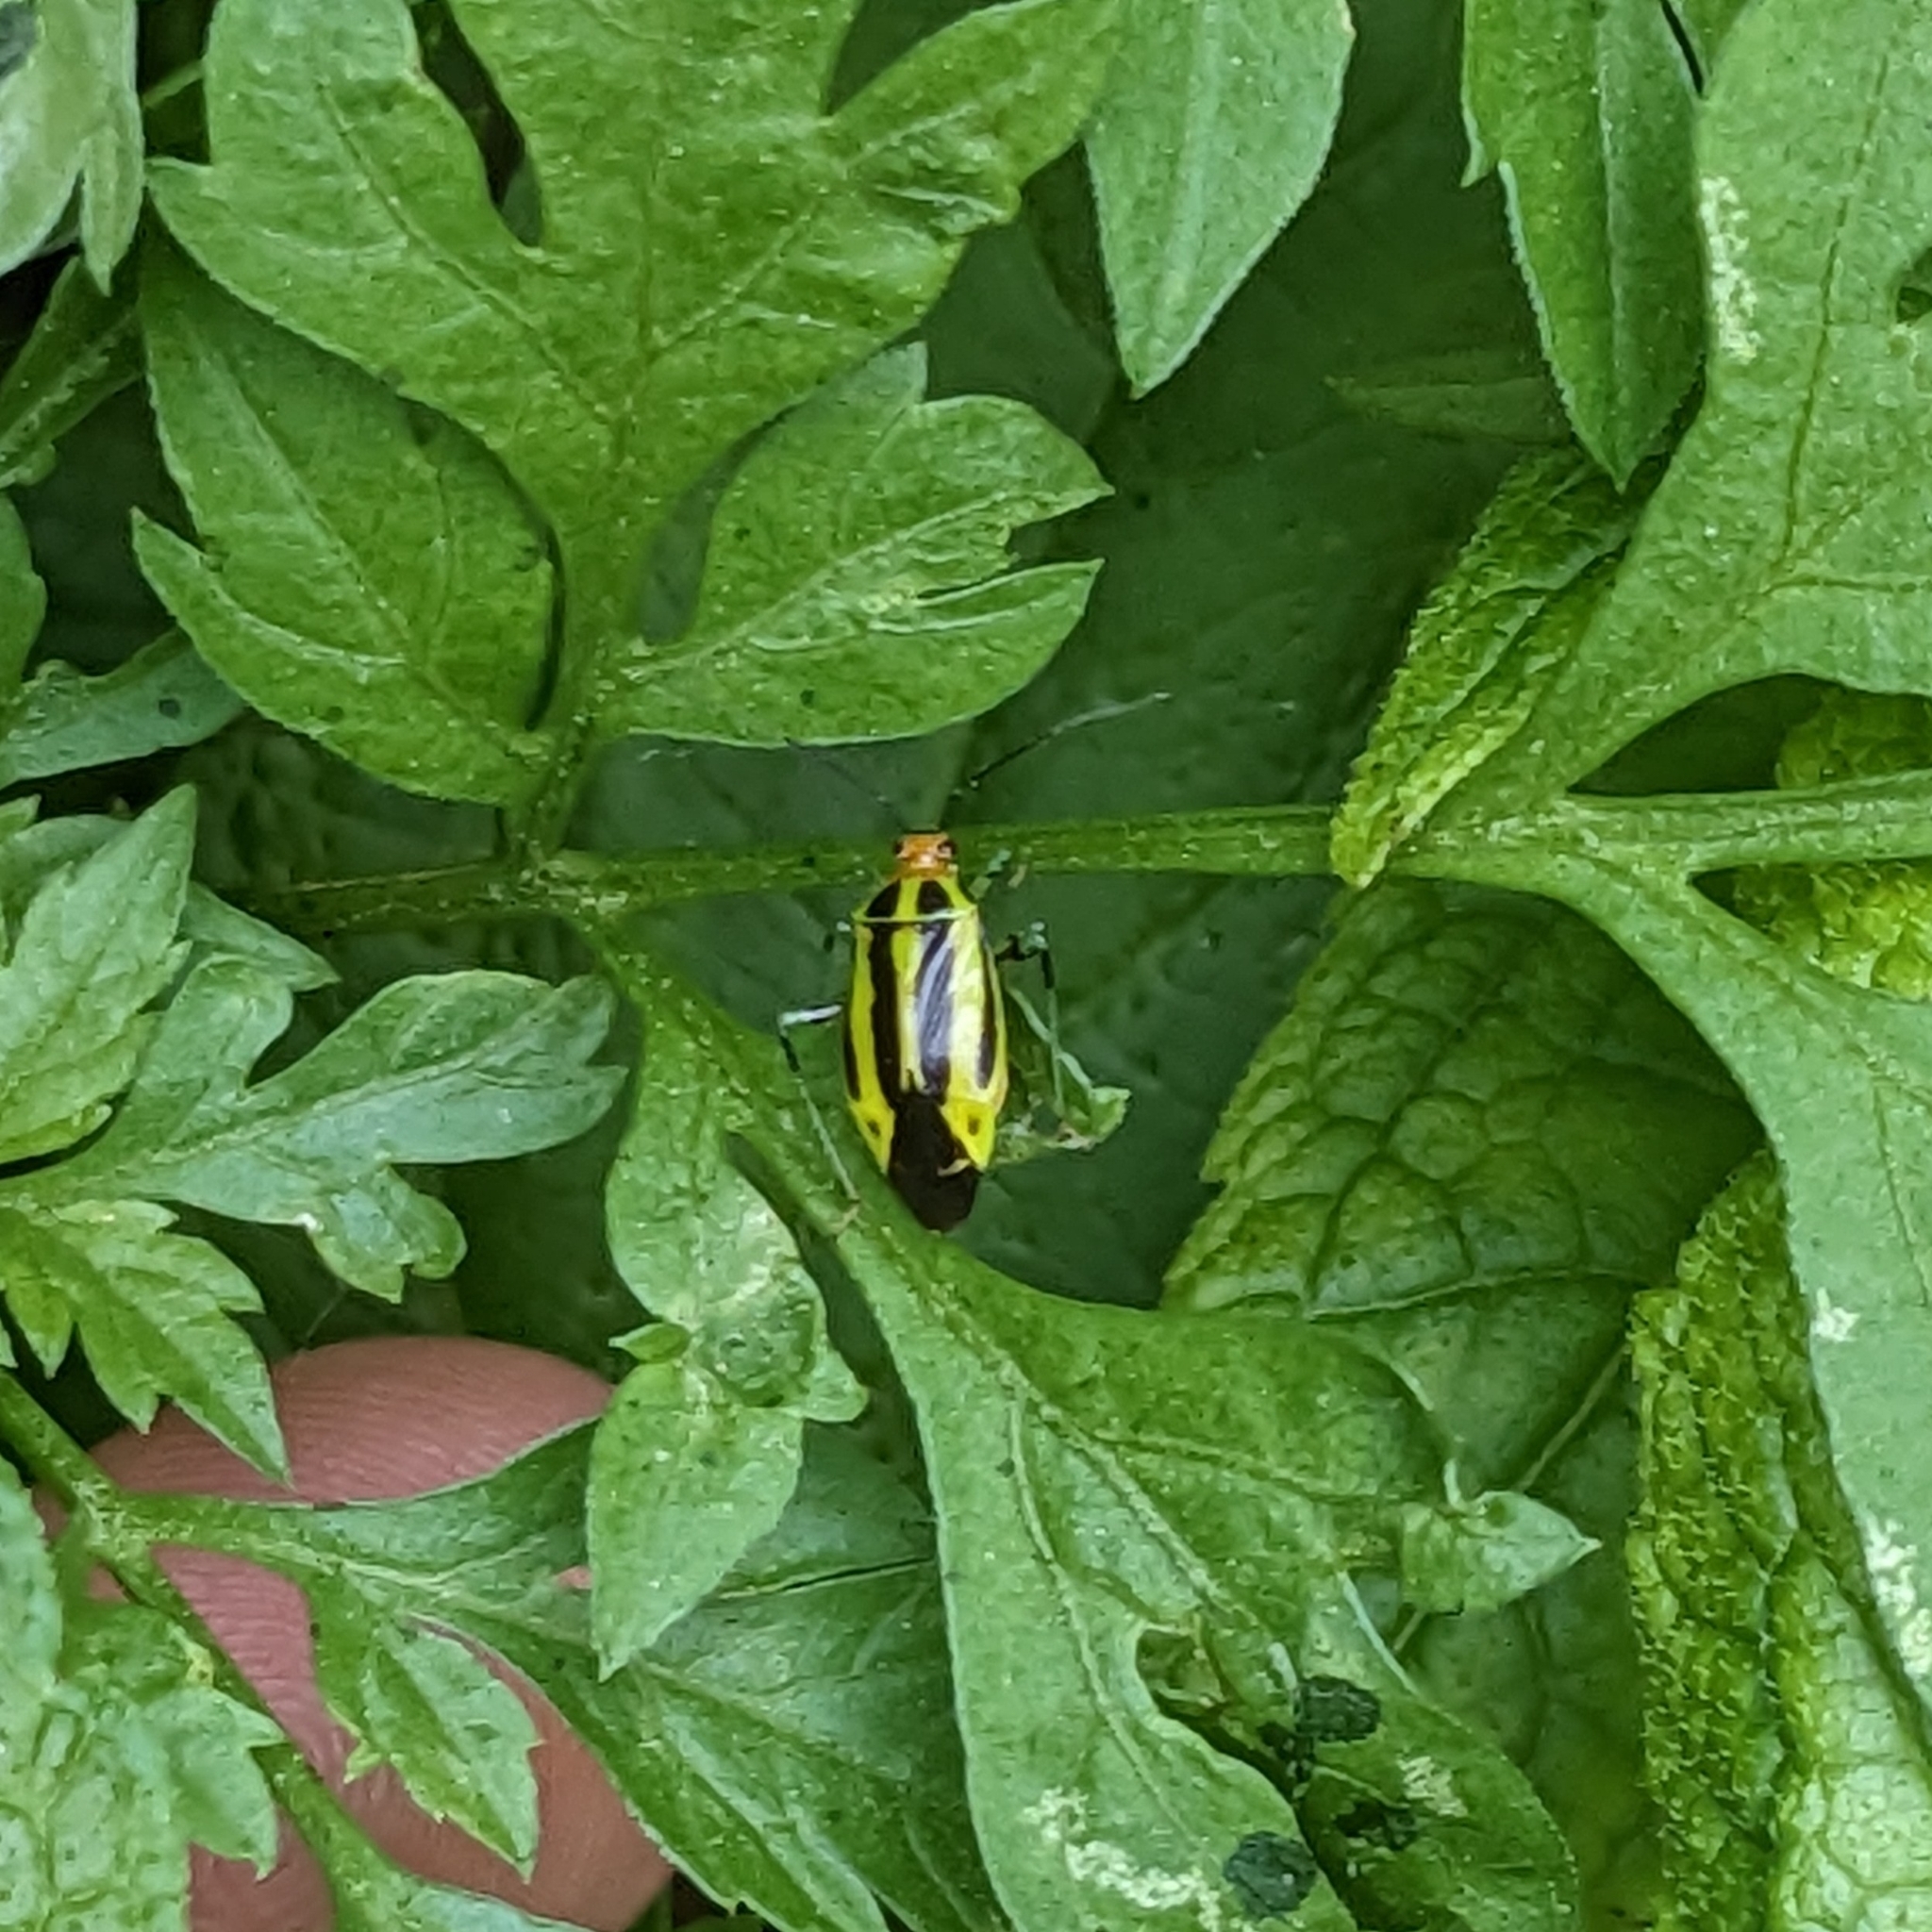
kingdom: Animalia
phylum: Arthropoda
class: Insecta
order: Hemiptera
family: Miridae
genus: Poecilocapsus
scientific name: Poecilocapsus lineatus
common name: Four-lined plant bug
